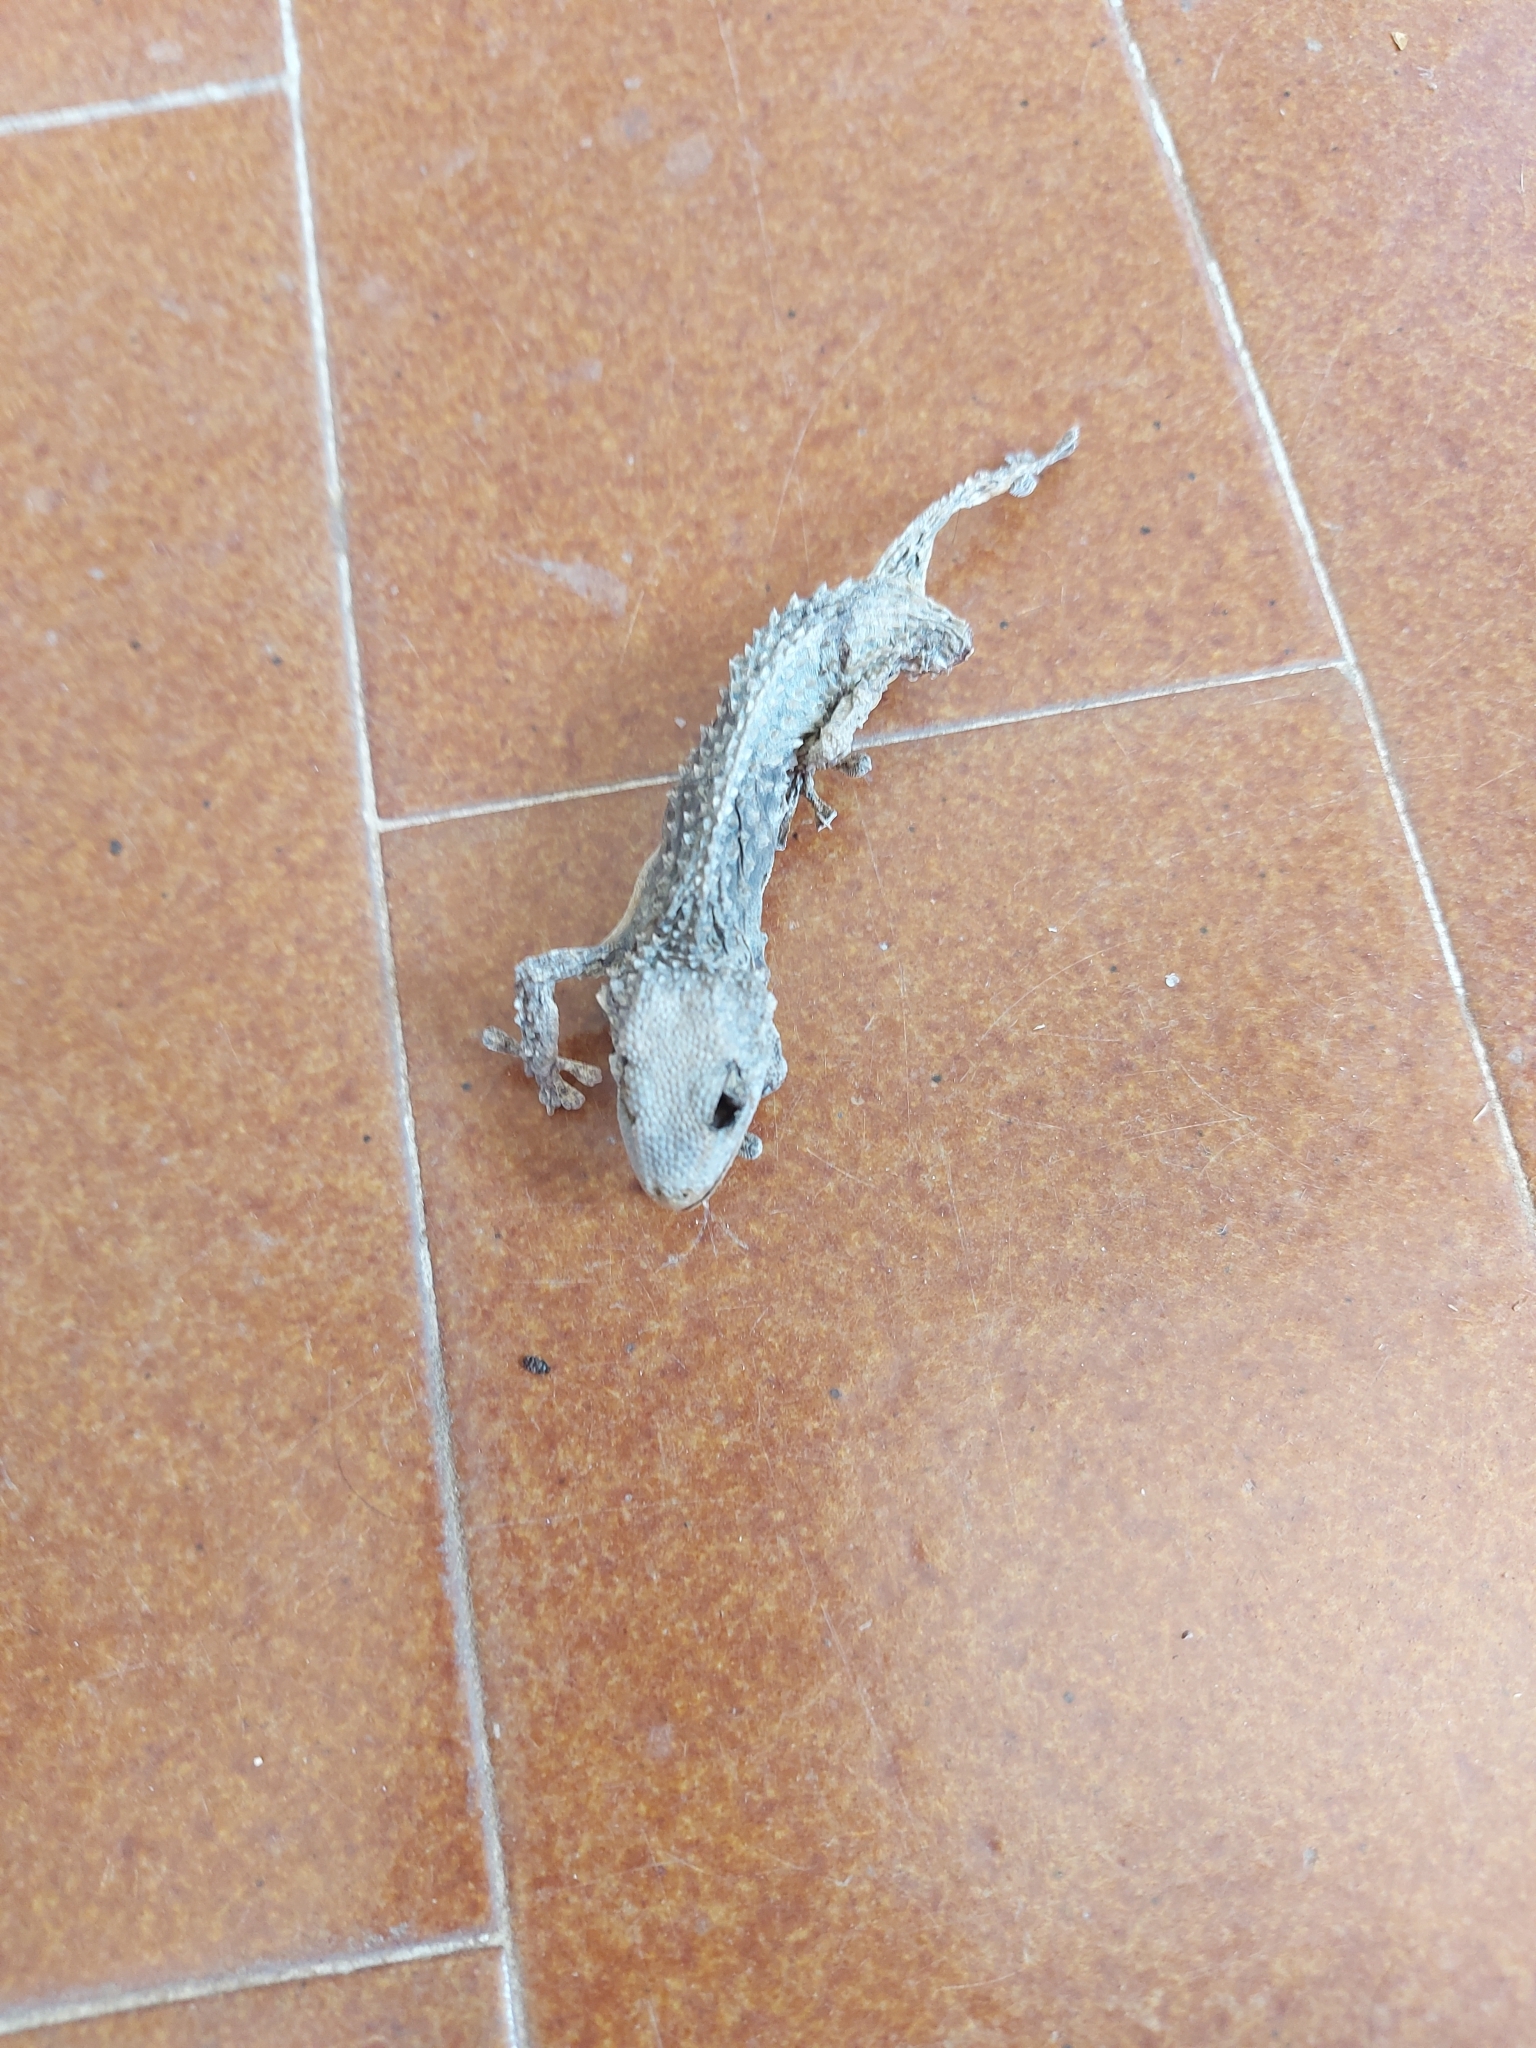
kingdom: Animalia
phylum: Chordata
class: Squamata
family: Phyllodactylidae
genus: Tarentola
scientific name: Tarentola mauritanica
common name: Moorish gecko
